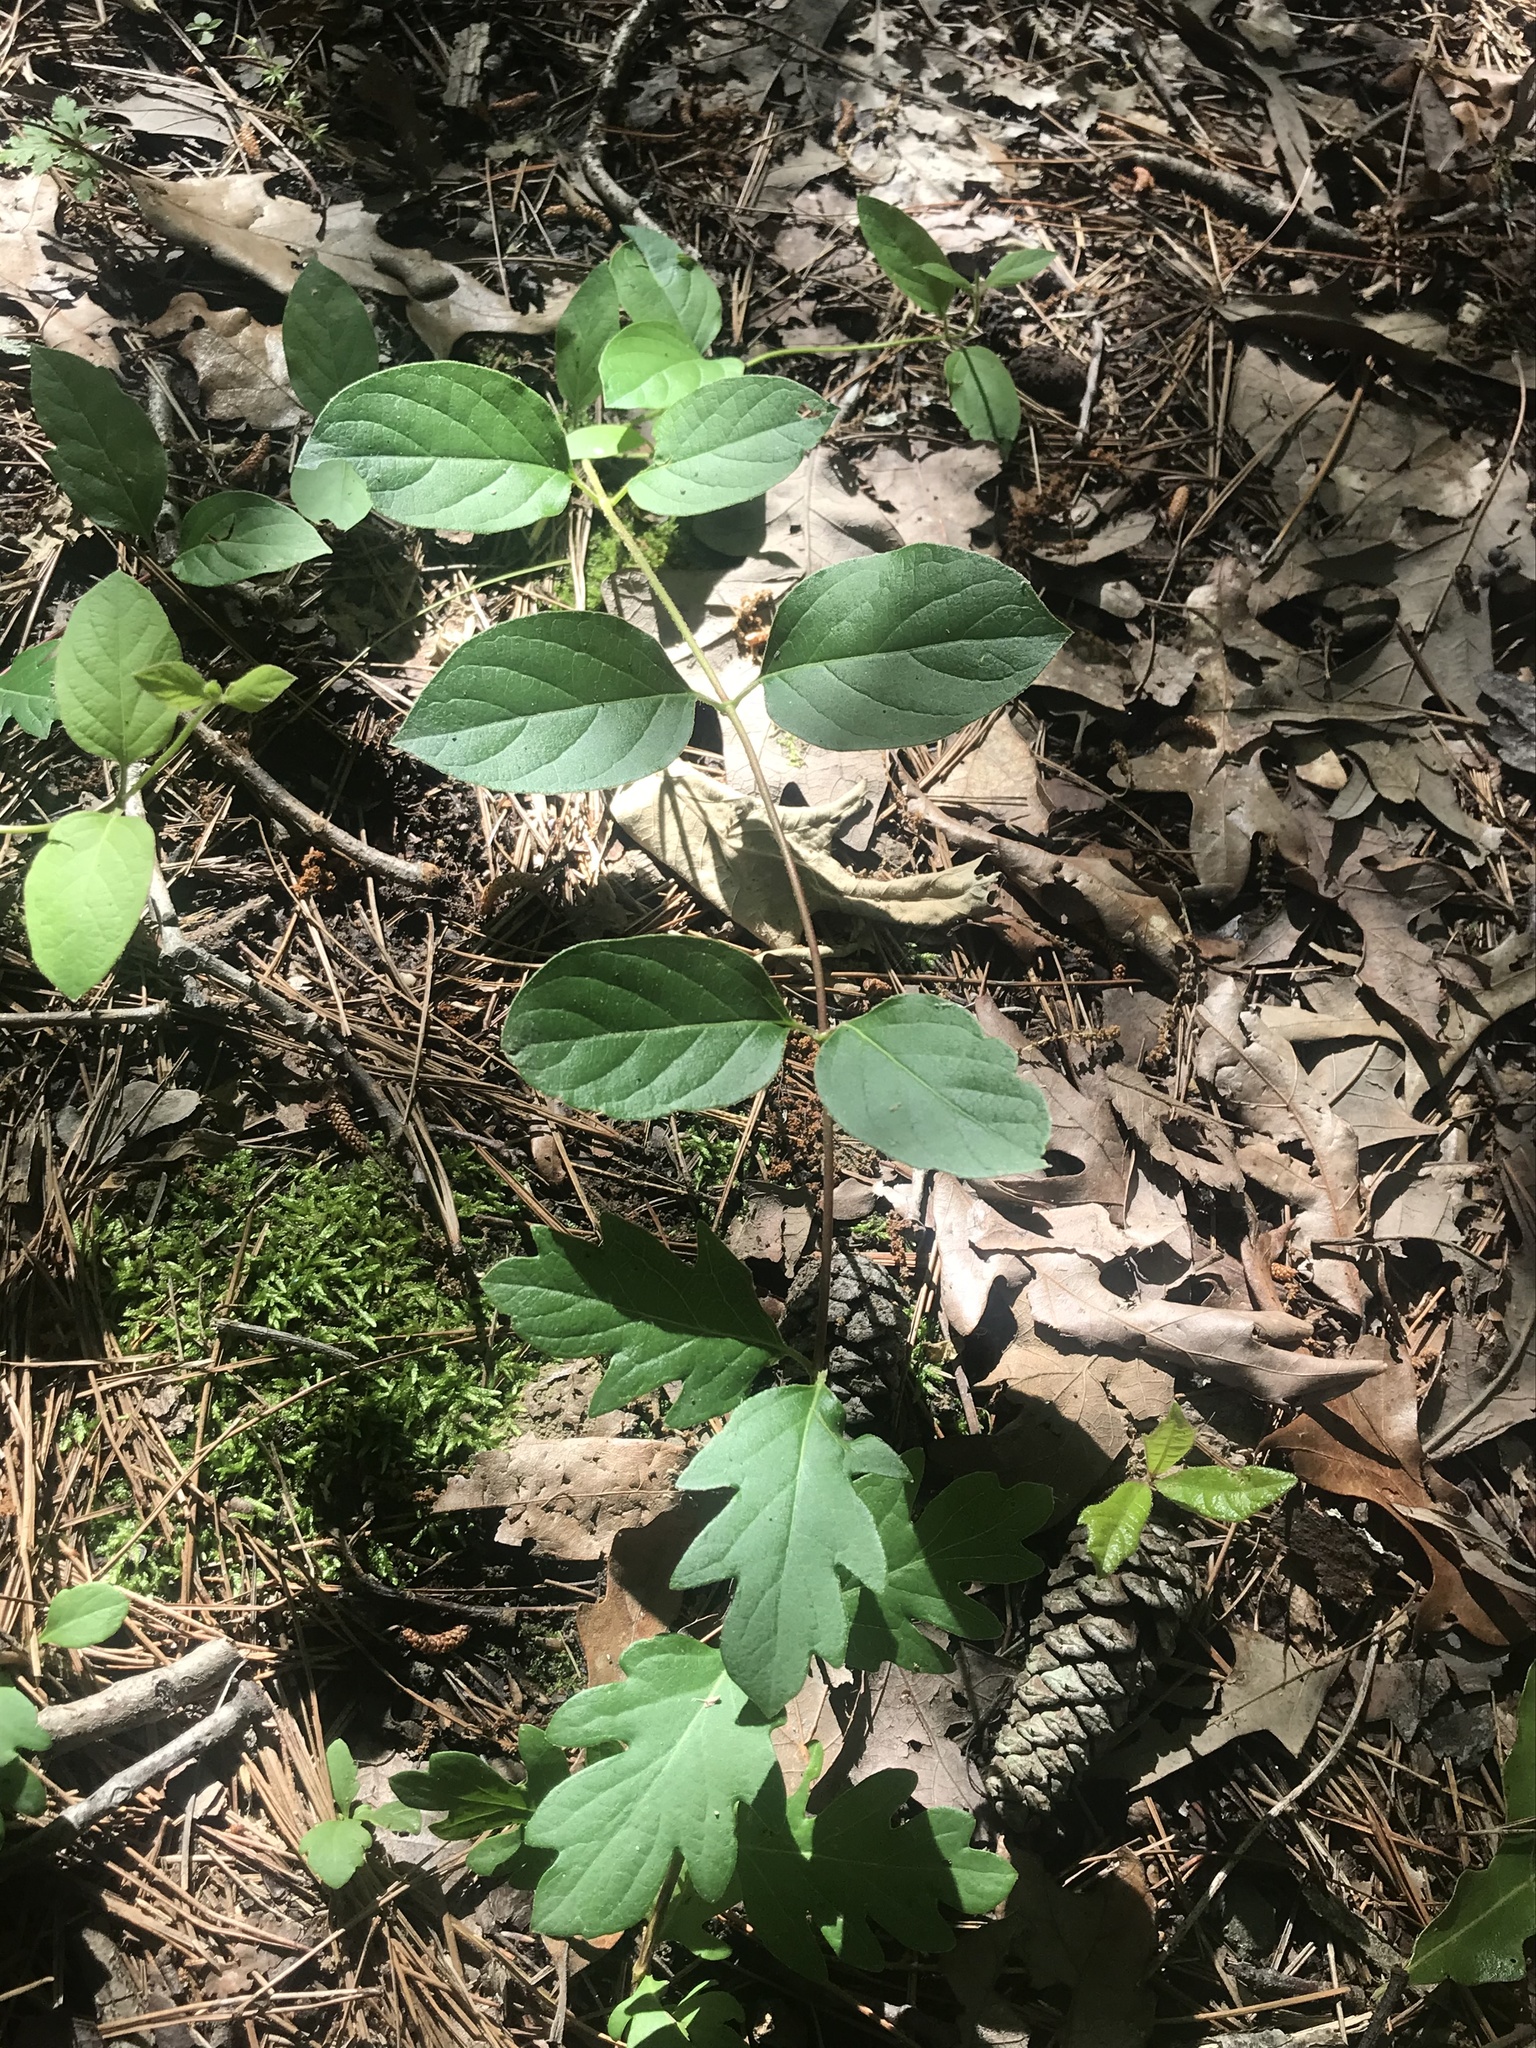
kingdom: Plantae
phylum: Tracheophyta
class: Magnoliopsida
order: Dipsacales
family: Caprifoliaceae
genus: Lonicera
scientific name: Lonicera japonica
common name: Japanese honeysuckle
